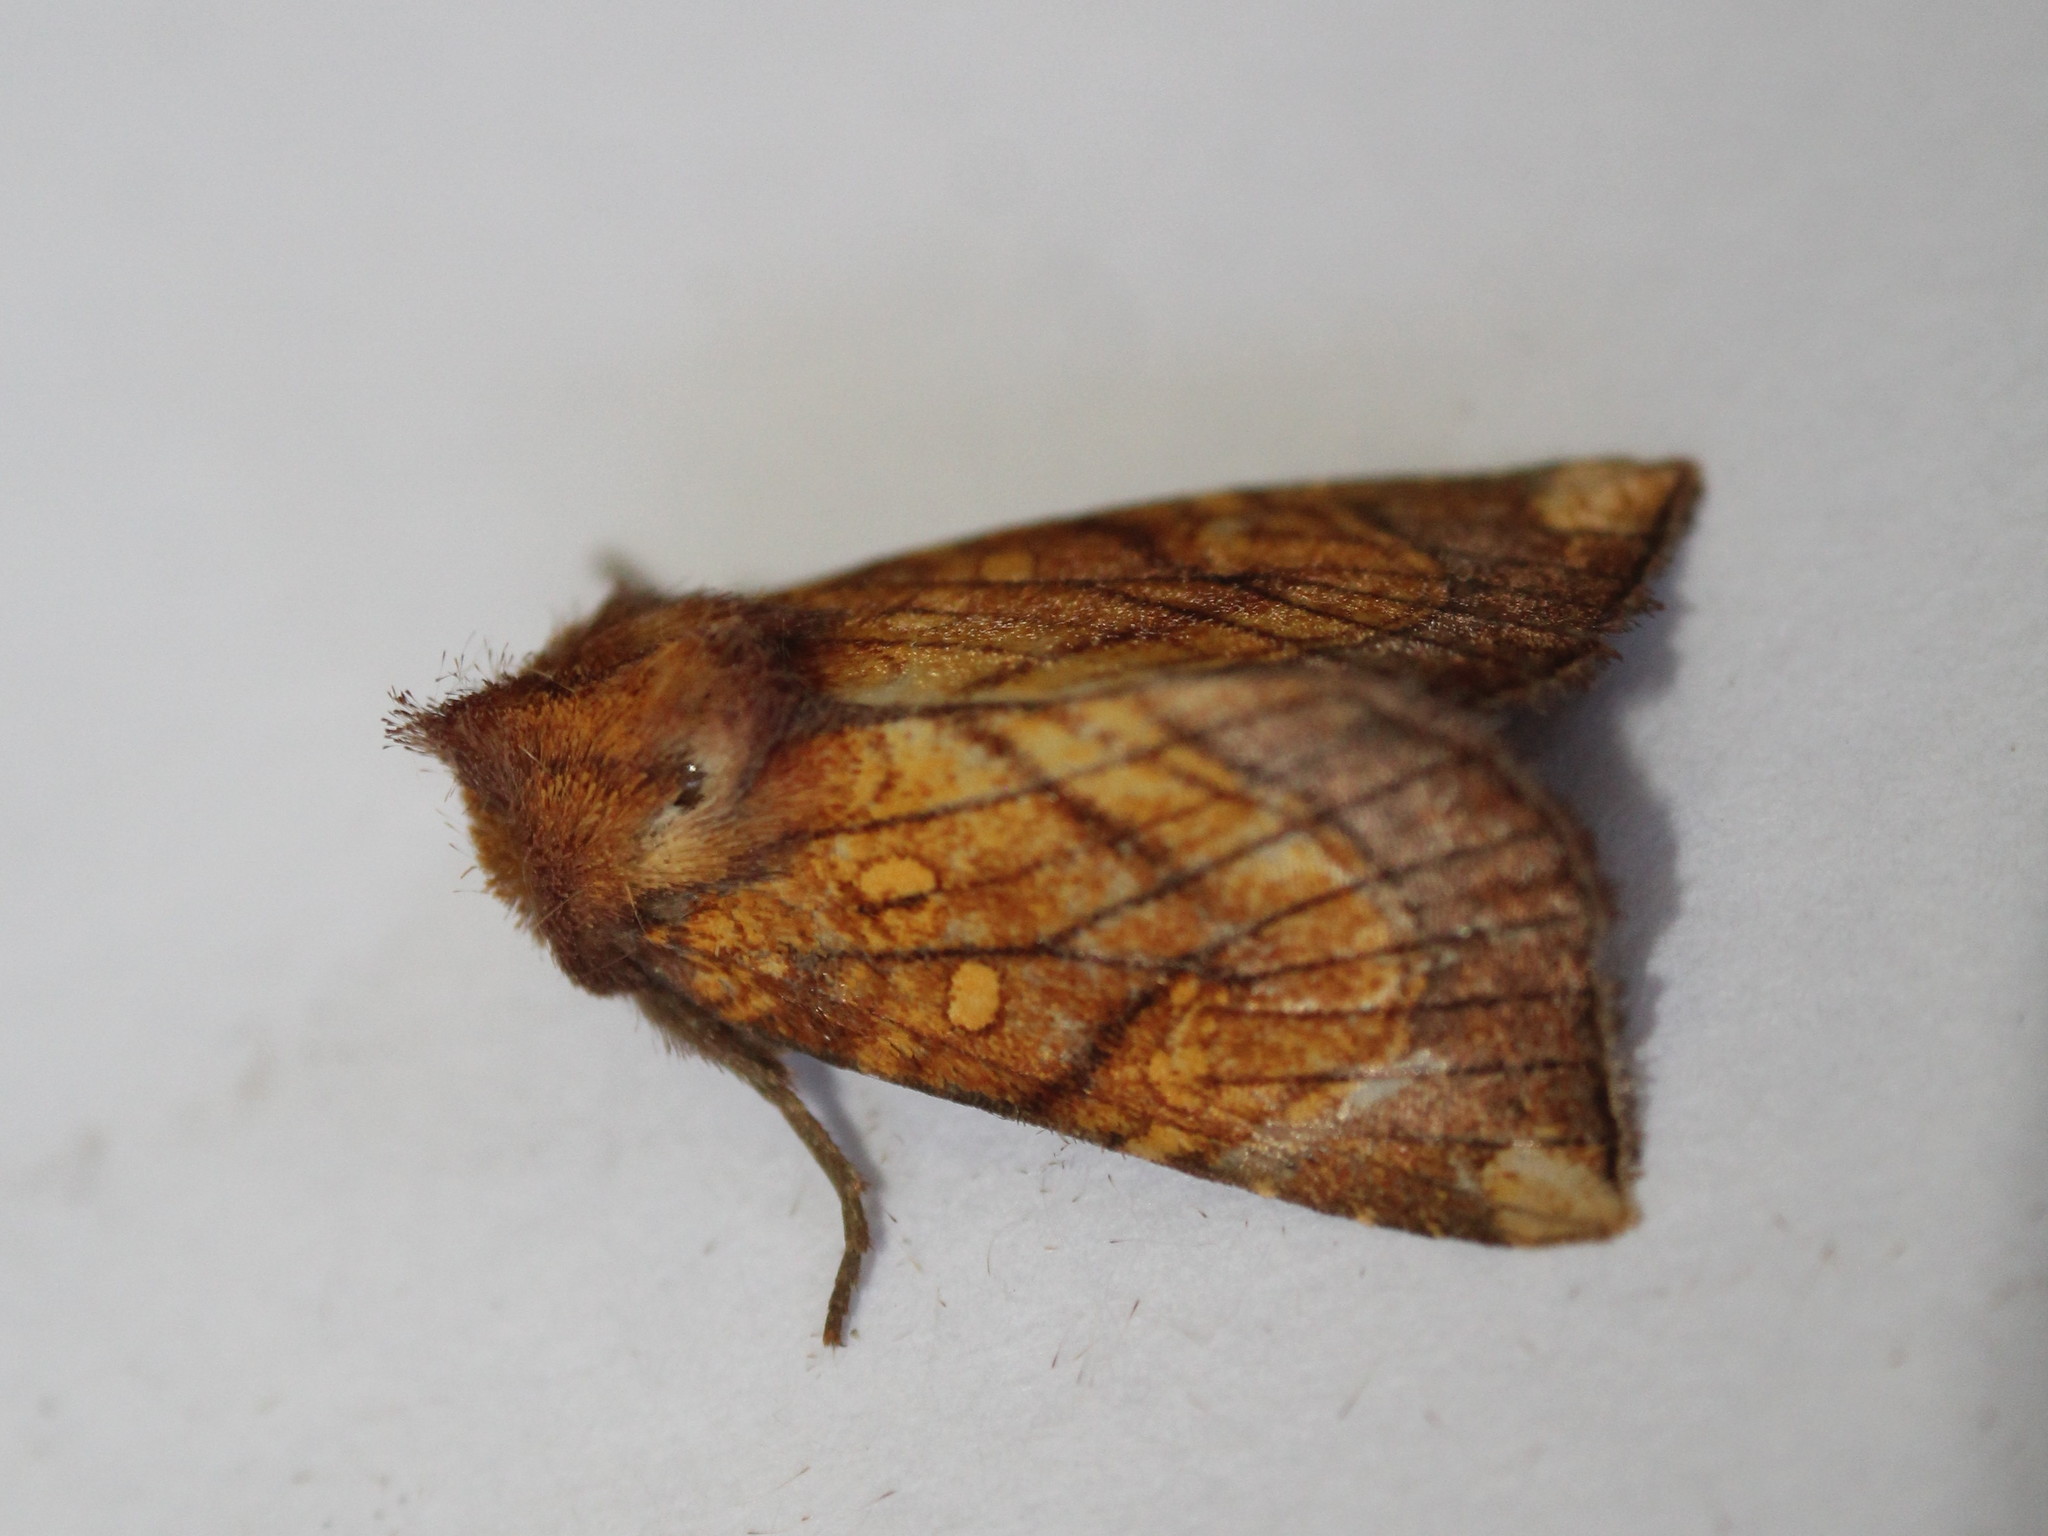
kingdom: Animalia
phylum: Arthropoda
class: Insecta
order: Lepidoptera
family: Noctuidae
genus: Papaipema
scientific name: Papaipema inquaesita
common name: Sensitive fern borer moth
